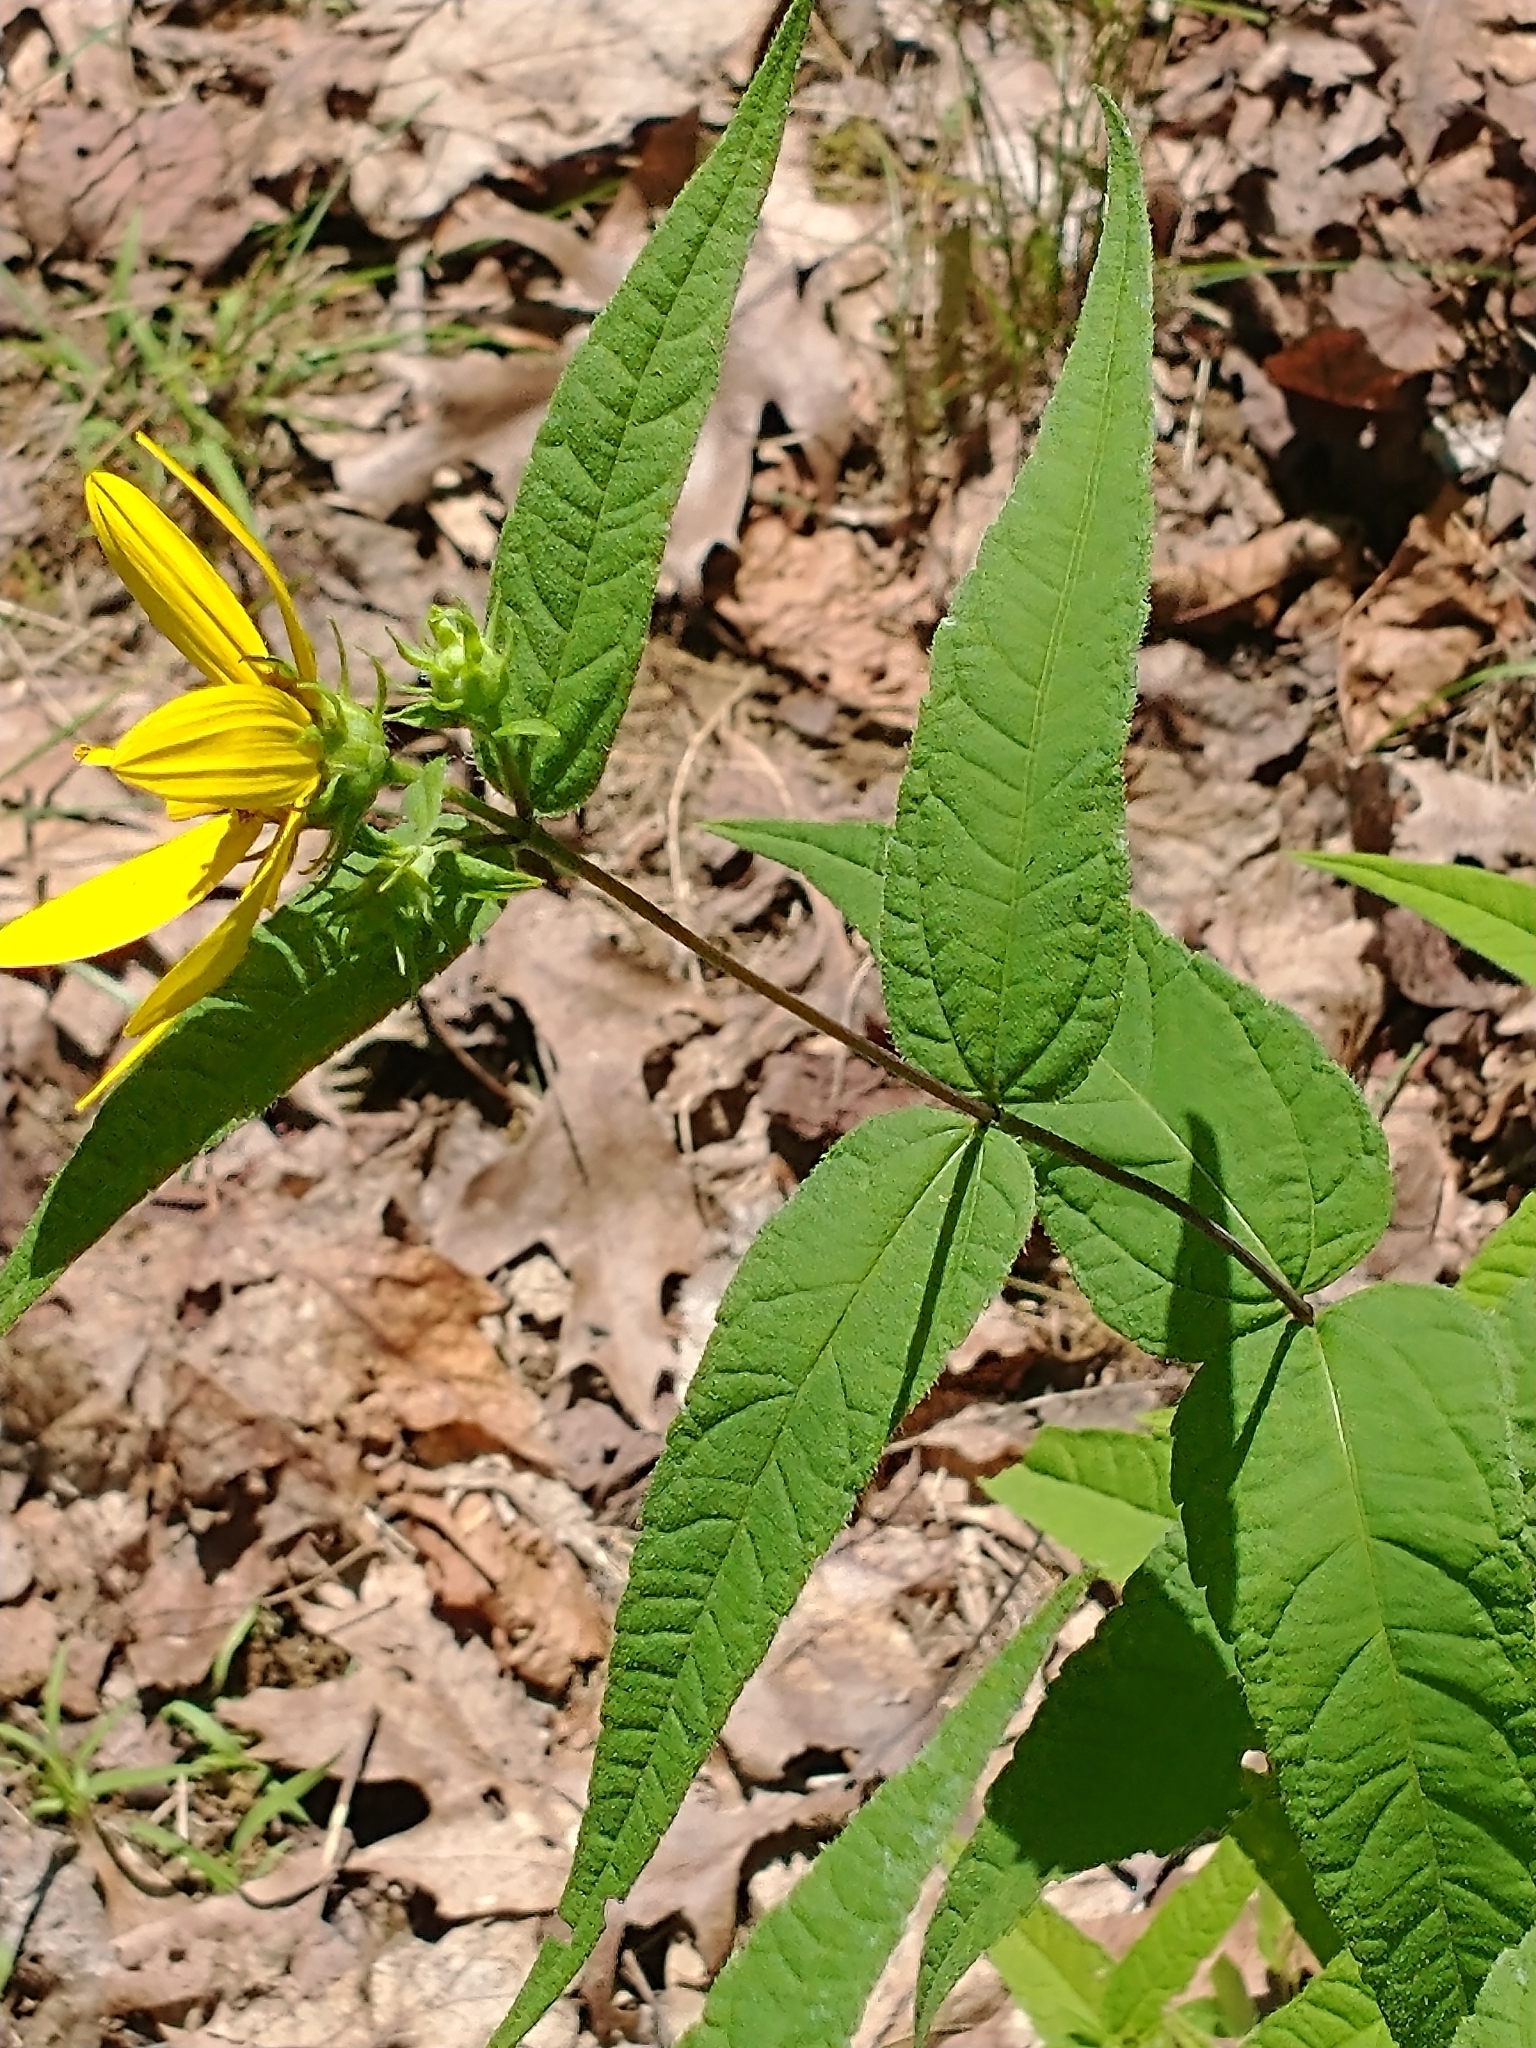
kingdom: Plantae
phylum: Tracheophyta
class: Magnoliopsida
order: Asterales
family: Asteraceae
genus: Helianthus
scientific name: Helianthus divaricatus
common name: Divergent sunflower
